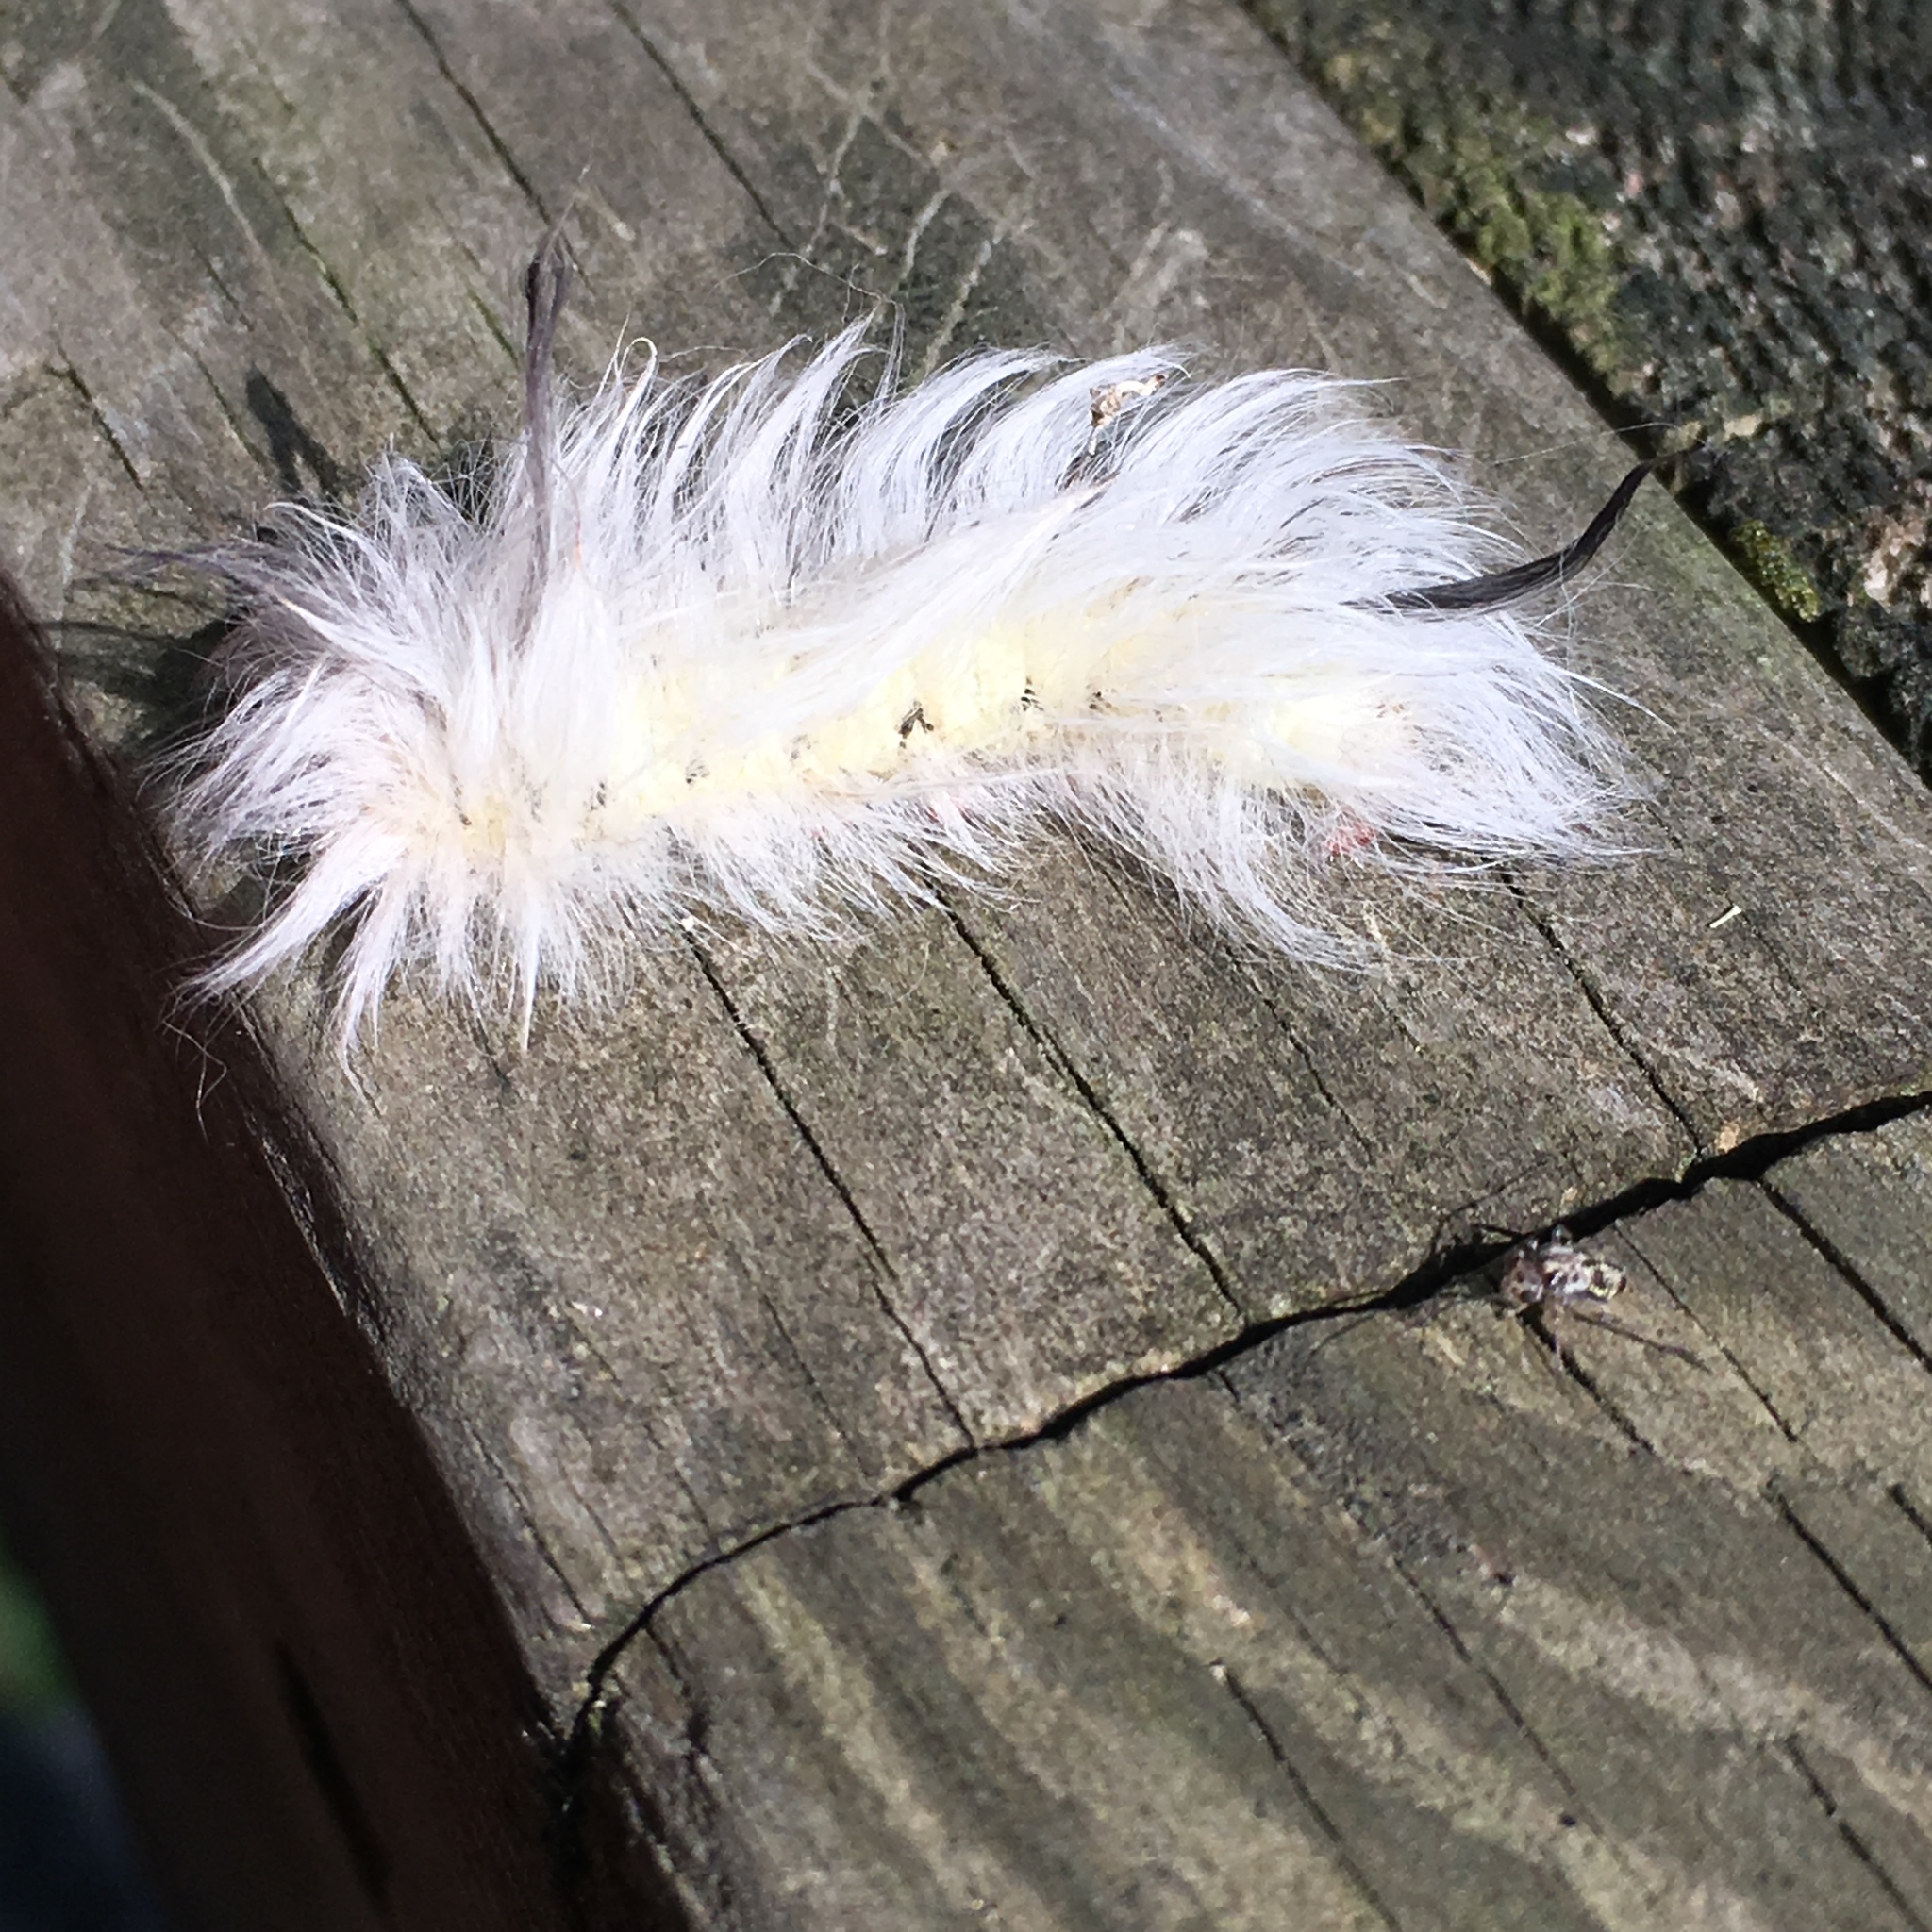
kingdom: Animalia
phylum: Arthropoda
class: Insecta
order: Lepidoptera
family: Apatelodidae
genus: Hygrochroa
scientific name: Hygrochroa Apatelodes torrefacta
